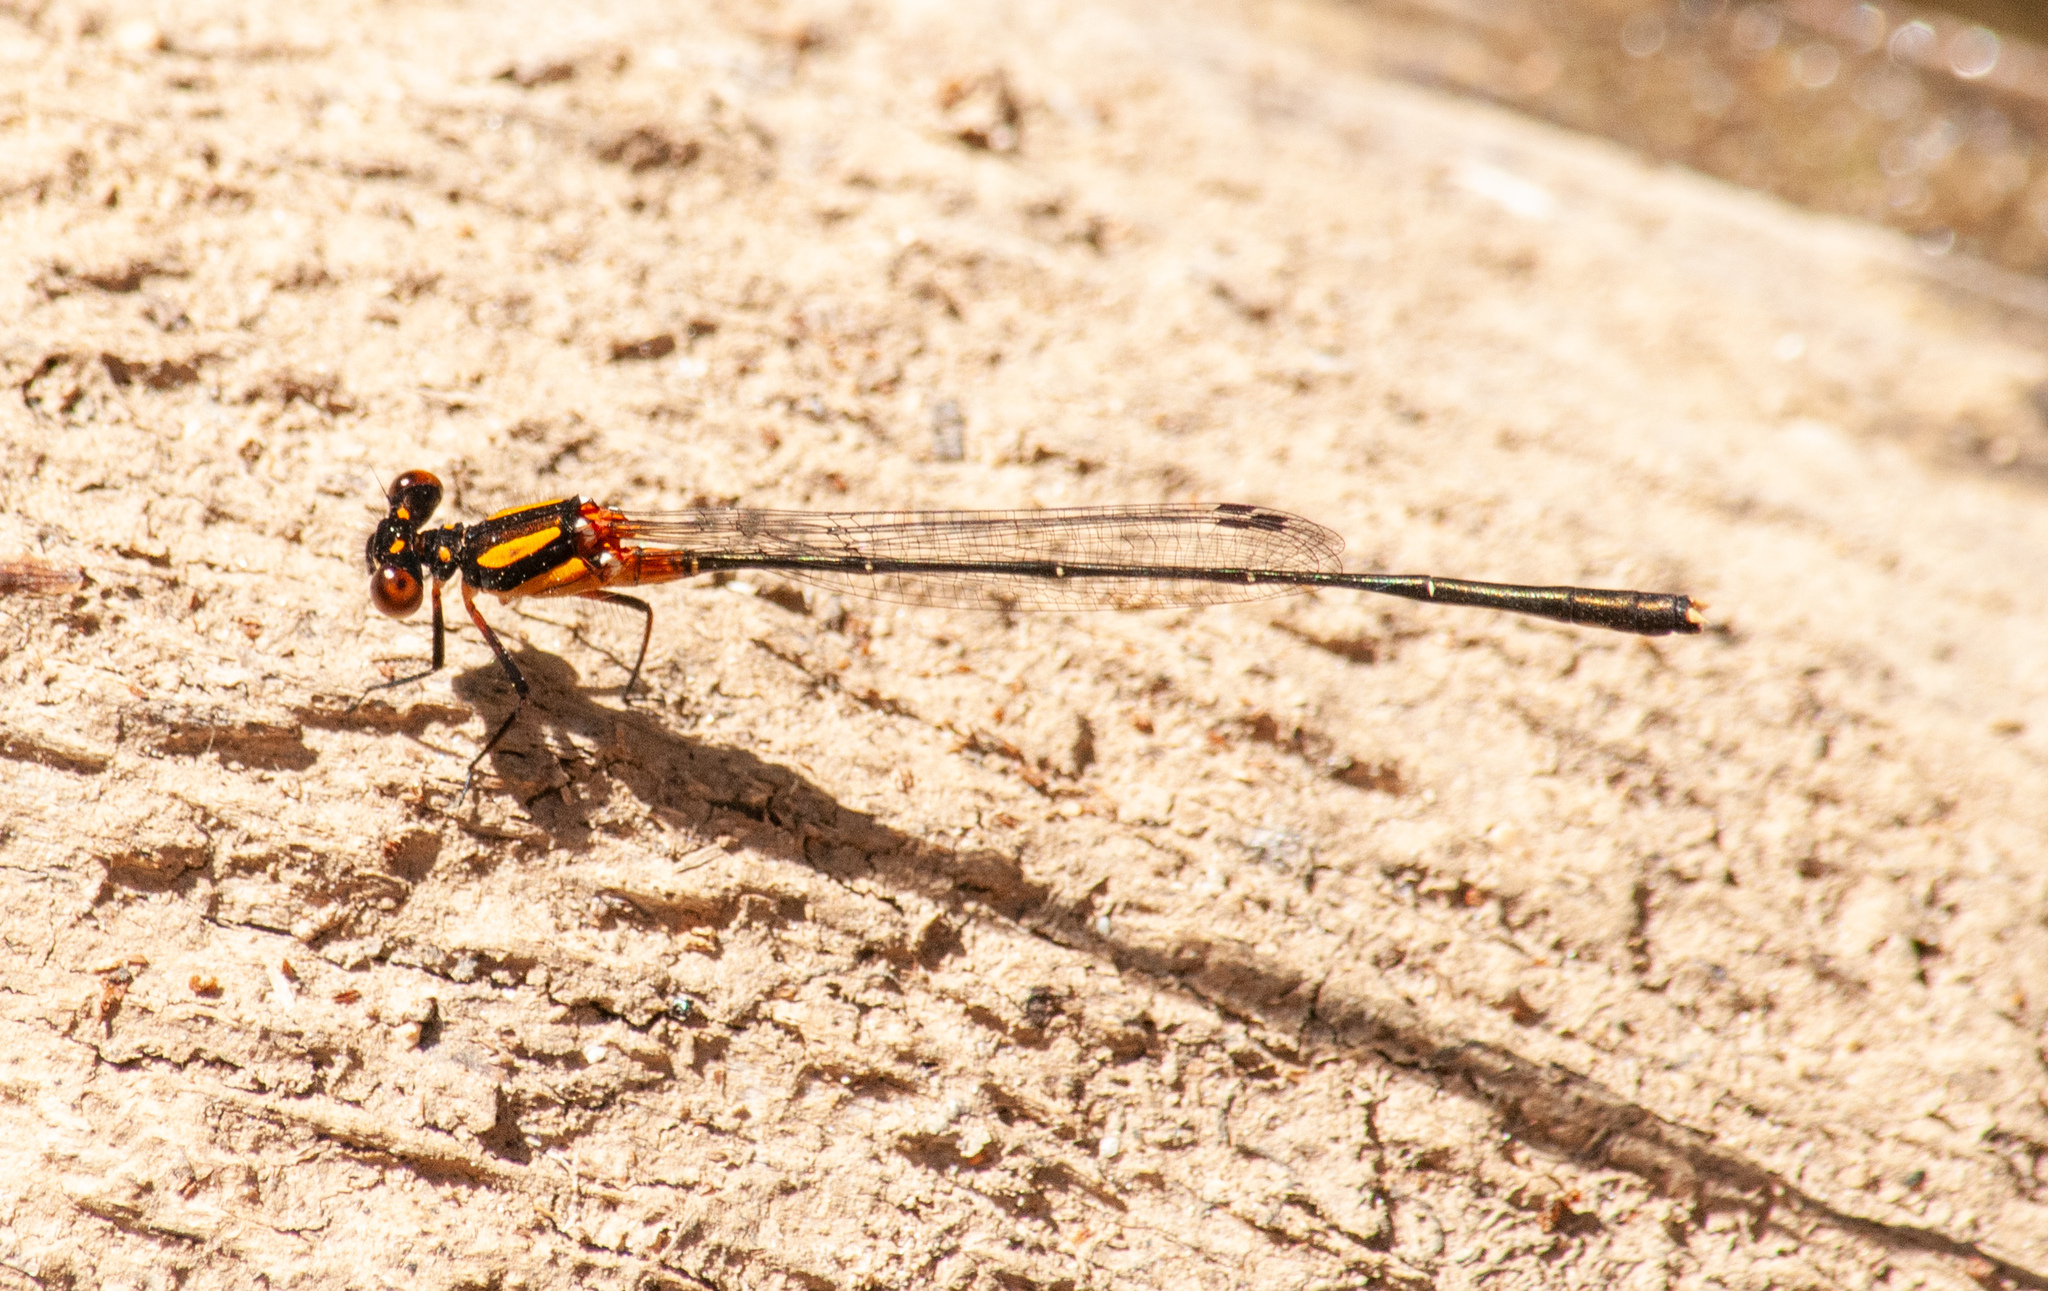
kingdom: Animalia
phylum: Arthropoda
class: Insecta
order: Odonata
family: Platycnemididae
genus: Nososticta
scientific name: Nososticta solida
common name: Orange threadtail
